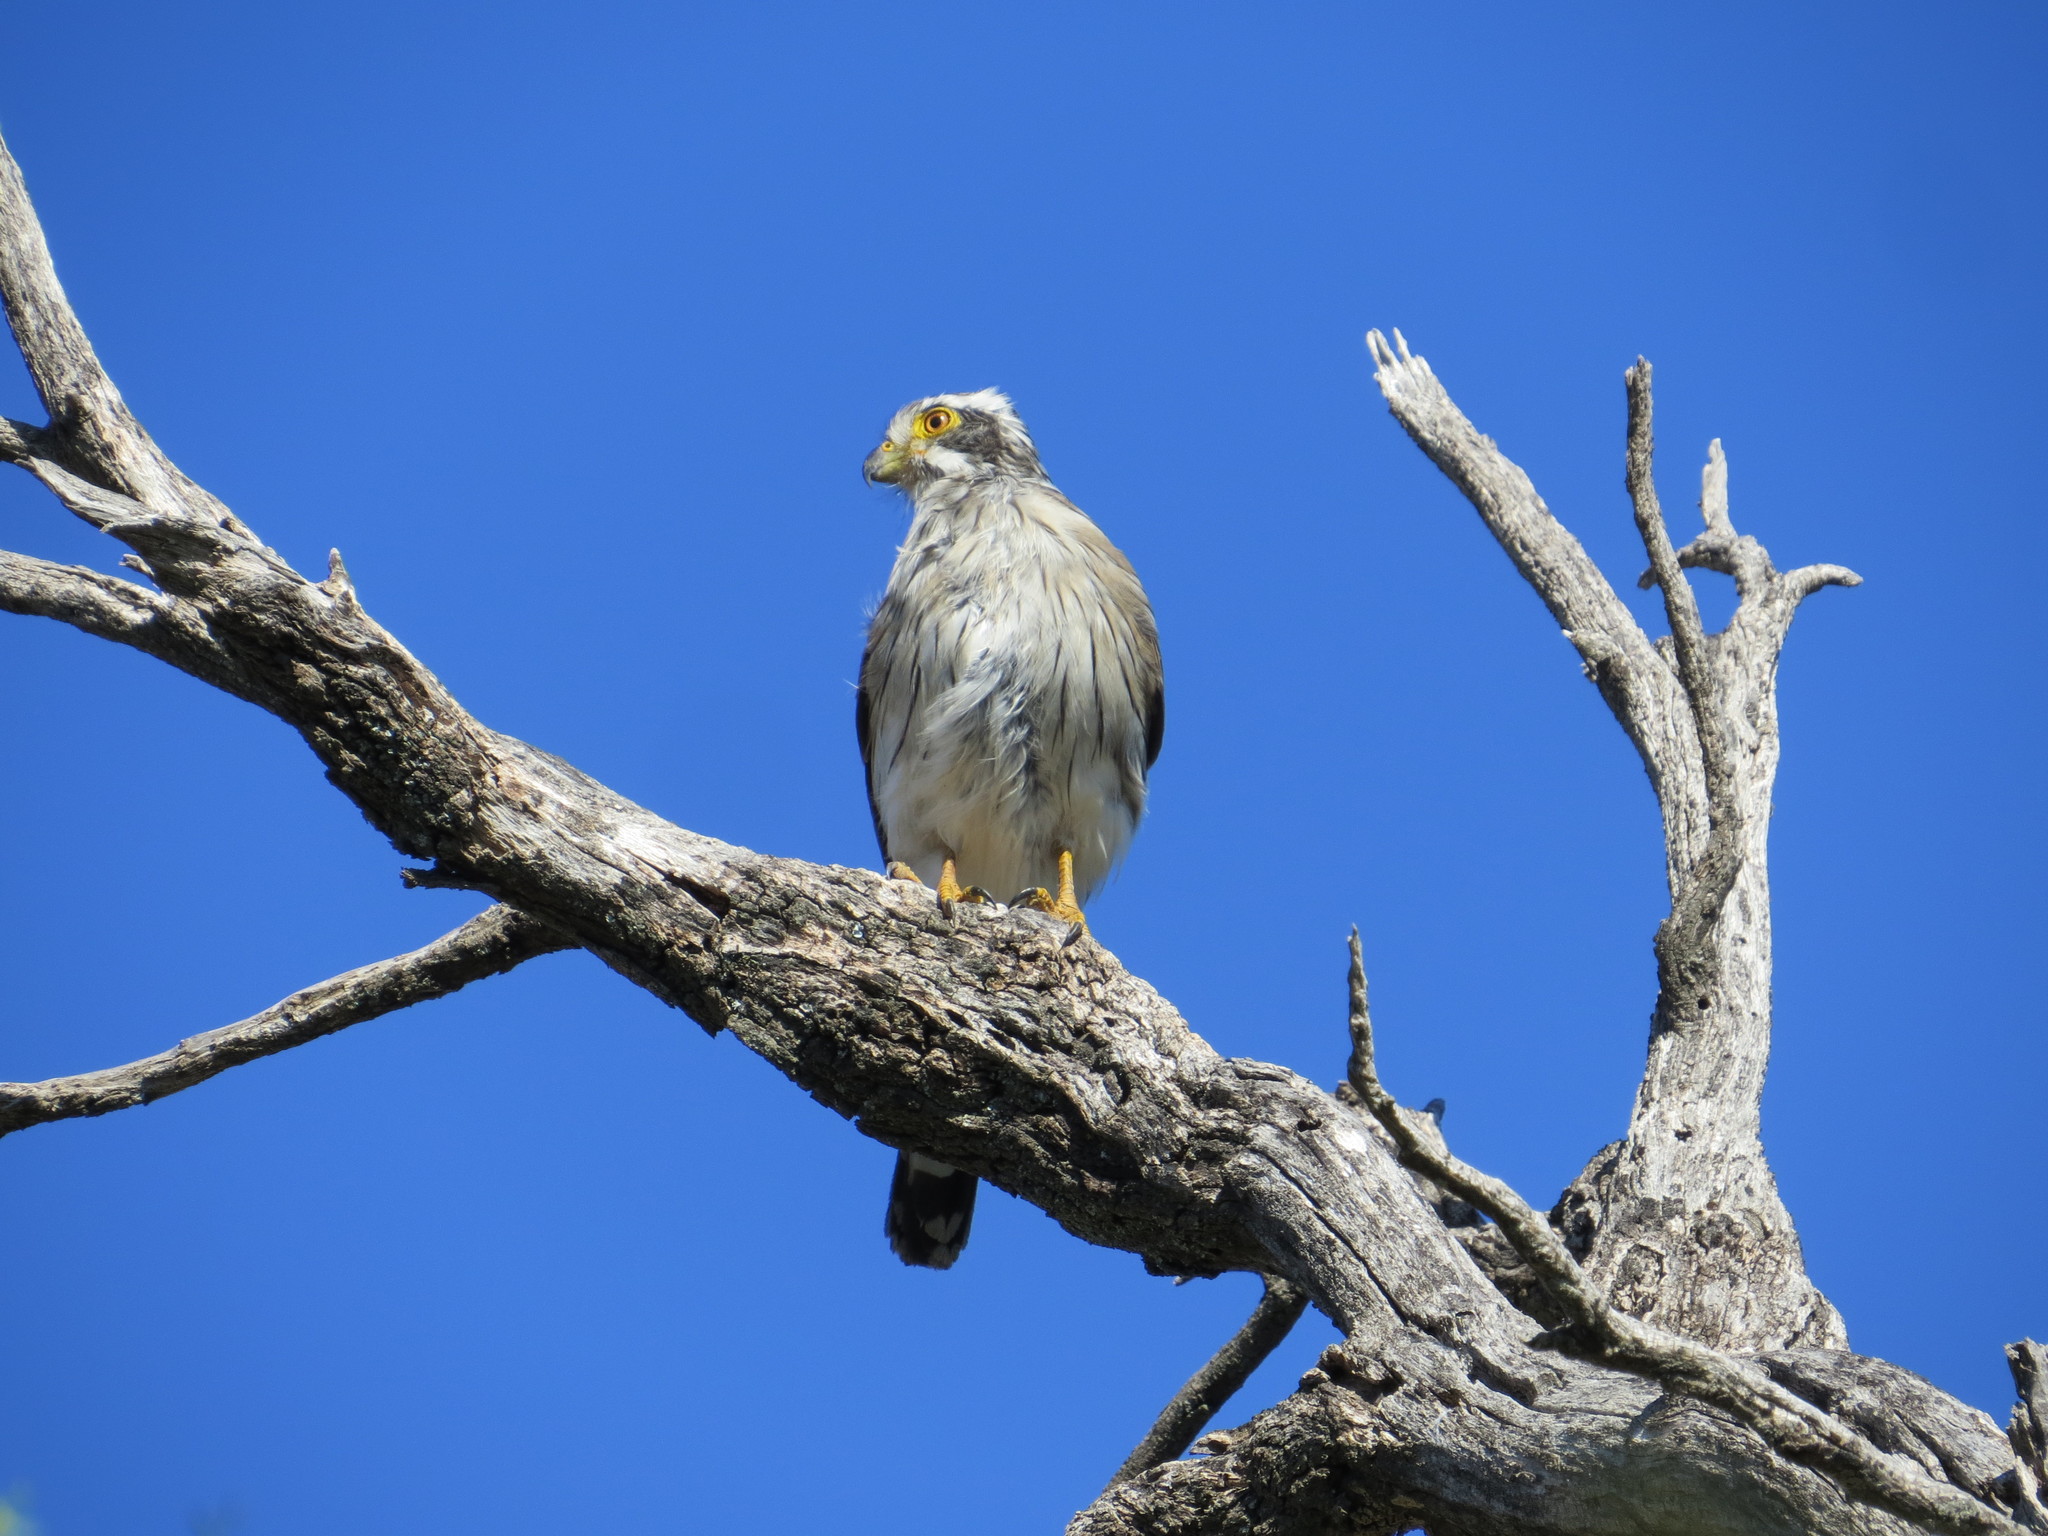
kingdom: Animalia
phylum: Chordata
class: Aves
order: Falconiformes
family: Falconidae
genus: Spiziapteryx
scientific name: Spiziapteryx circumcincta
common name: Spot-winged falconet
